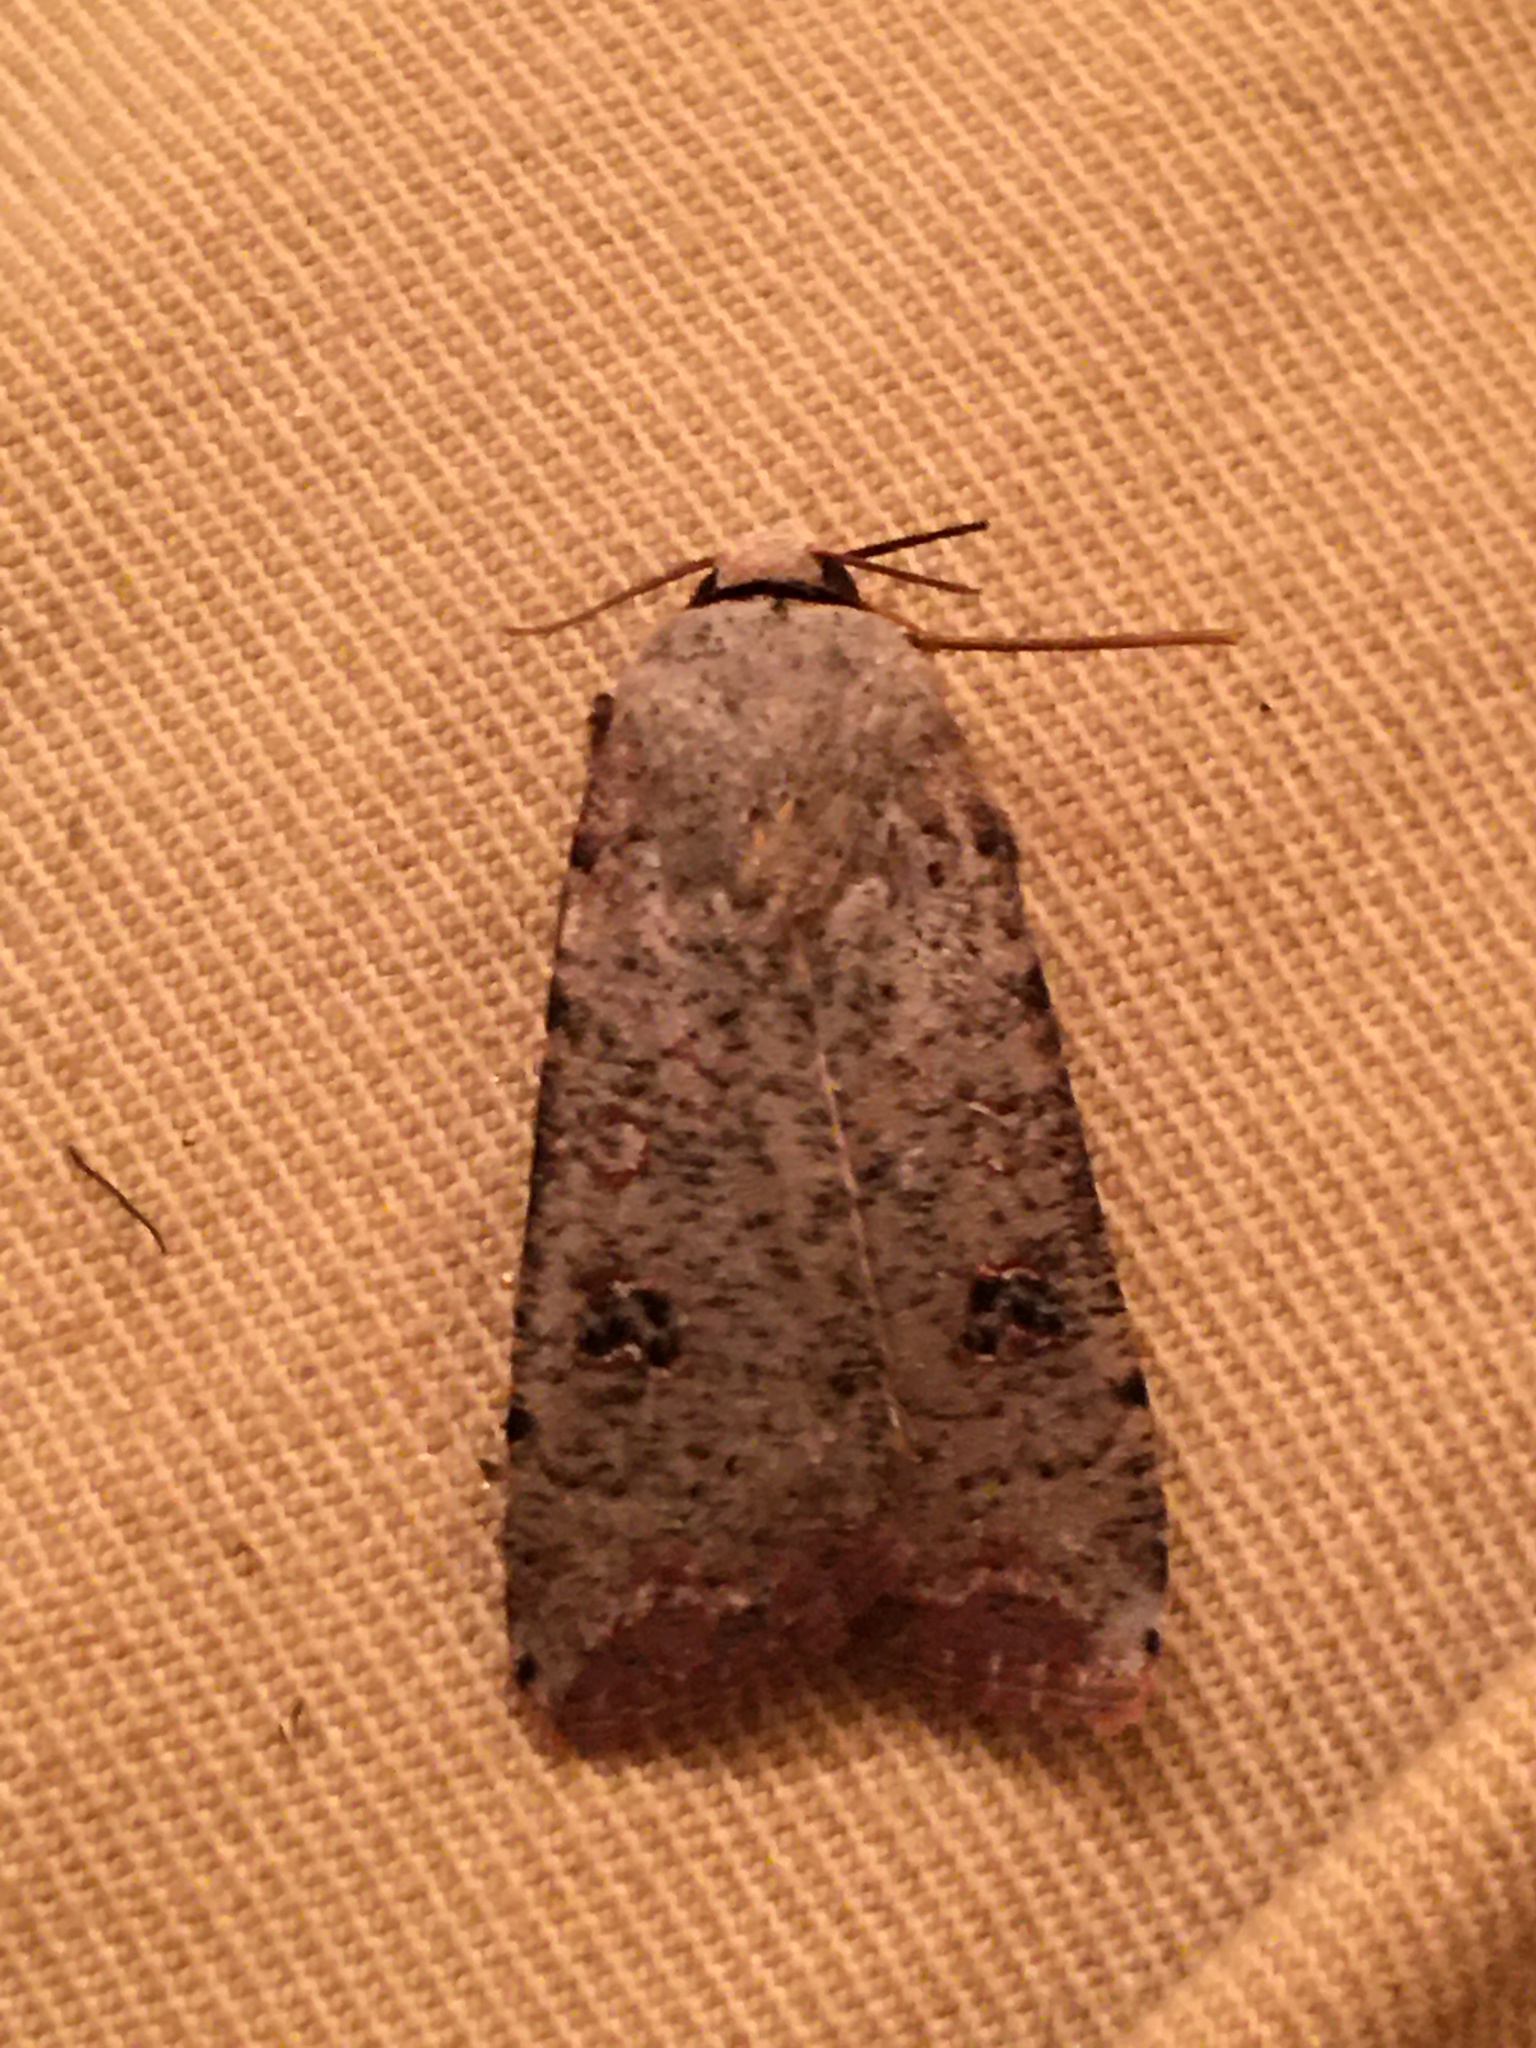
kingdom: Animalia
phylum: Arthropoda
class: Insecta
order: Lepidoptera
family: Noctuidae
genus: Anicla
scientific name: Anicla infecta
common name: Green cutworm
